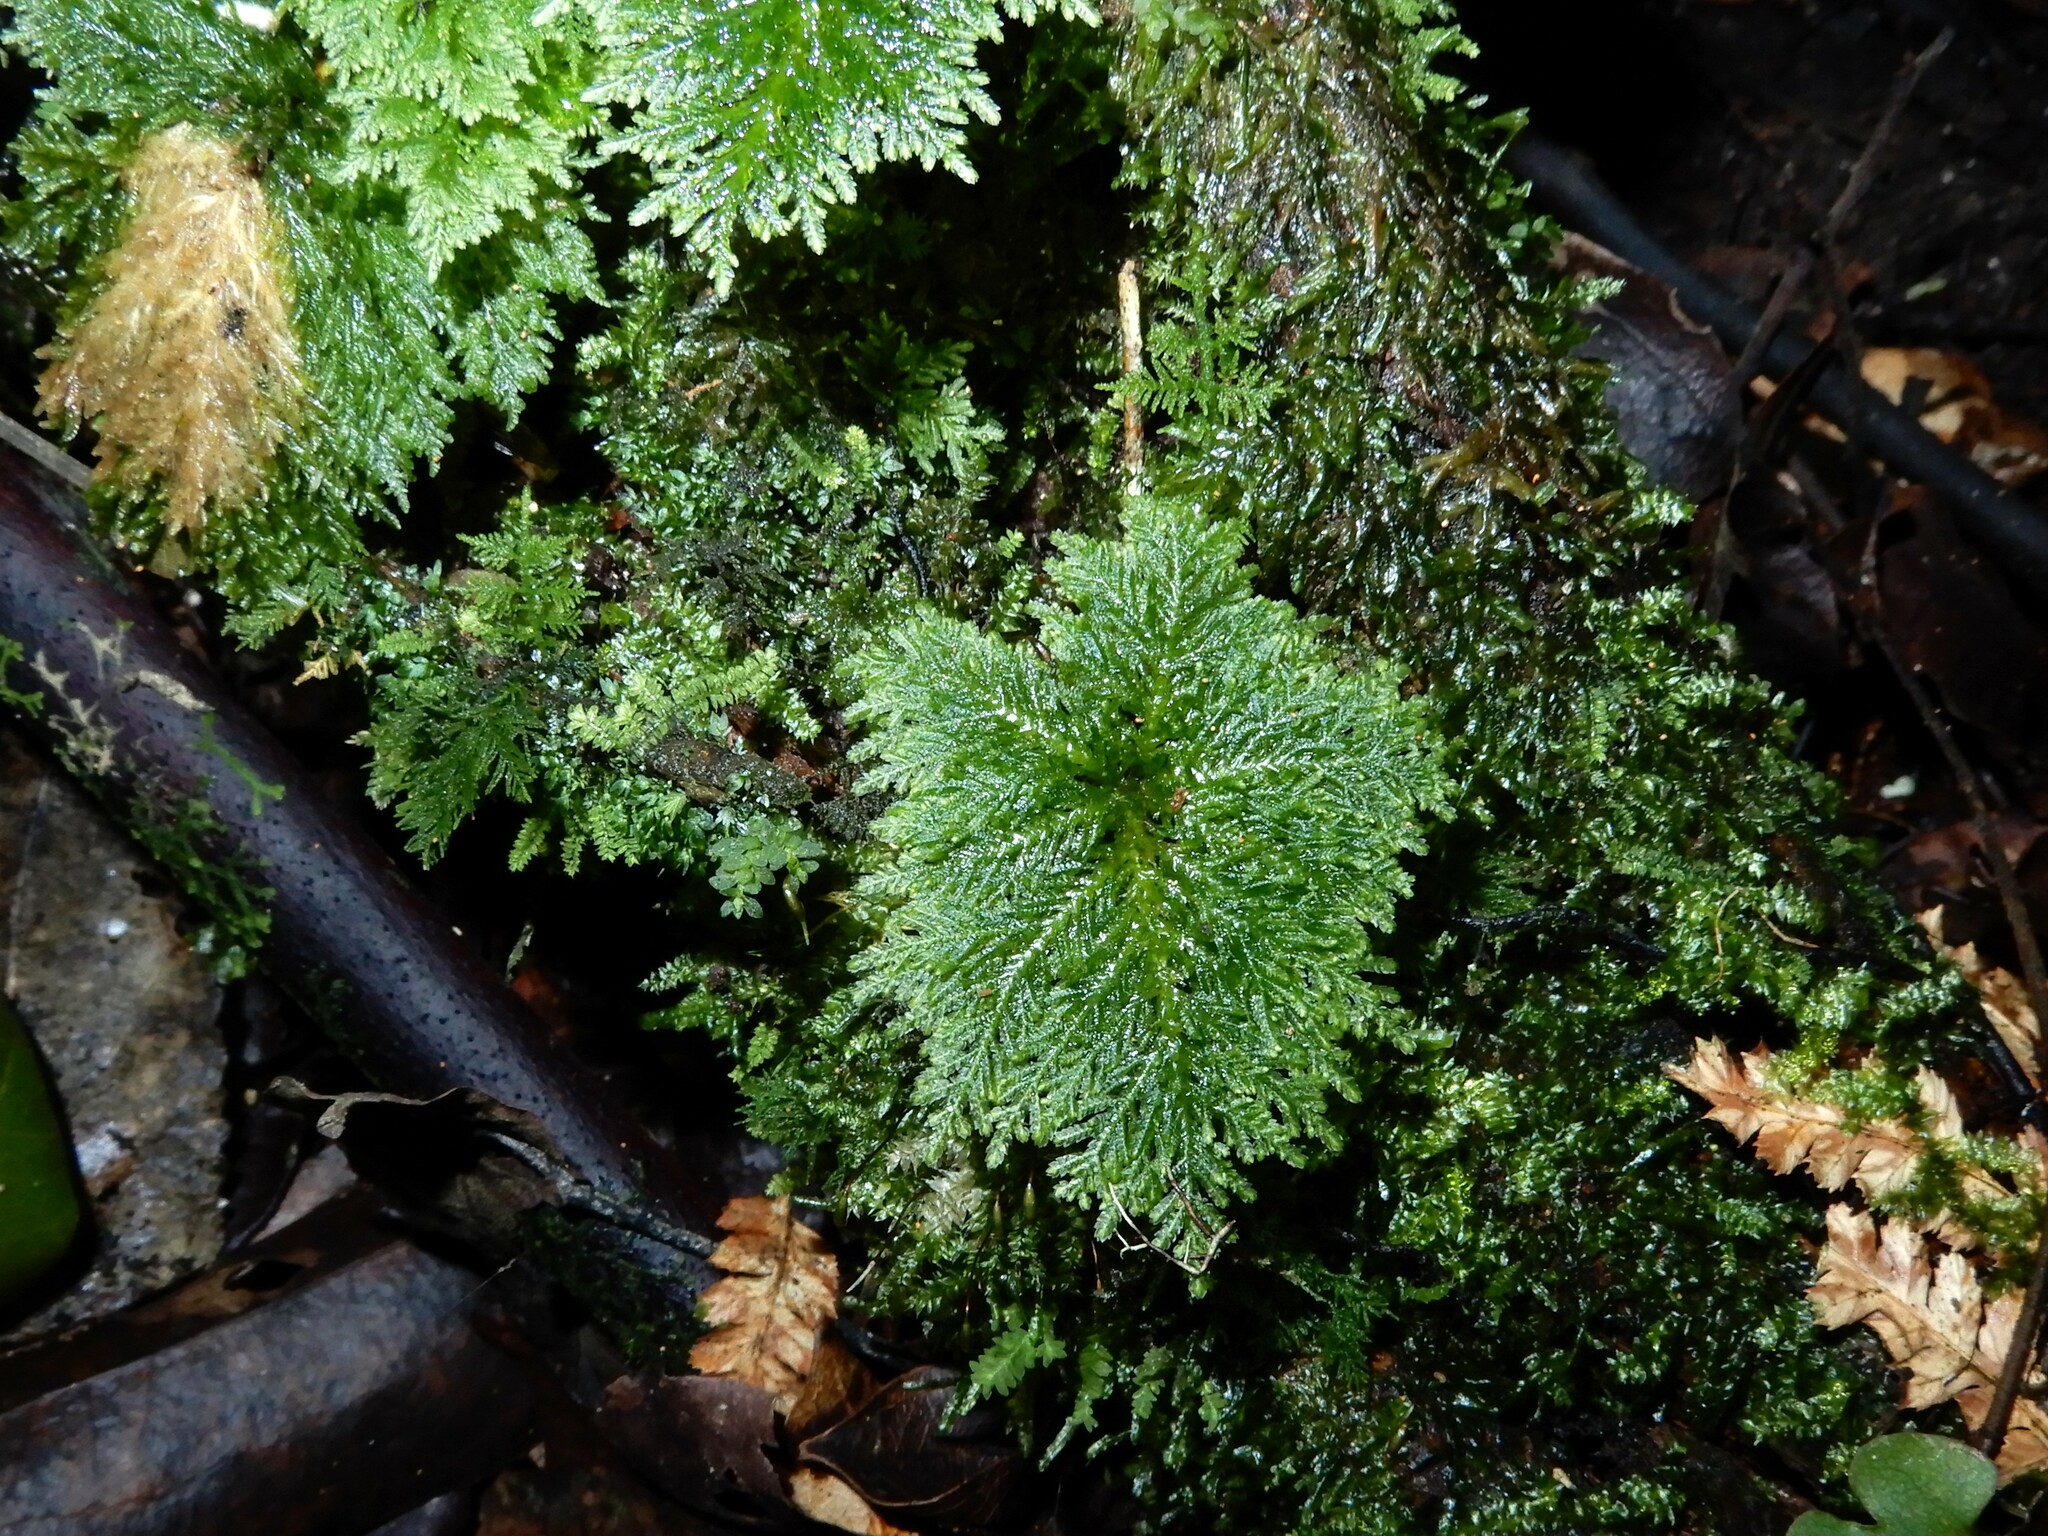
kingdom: Plantae
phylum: Bryophyta
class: Bryopsida
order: Hypopterygiales
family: Hypopterygiaceae
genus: Dendrohypopterygium
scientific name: Dendrohypopterygium filiculiforme
